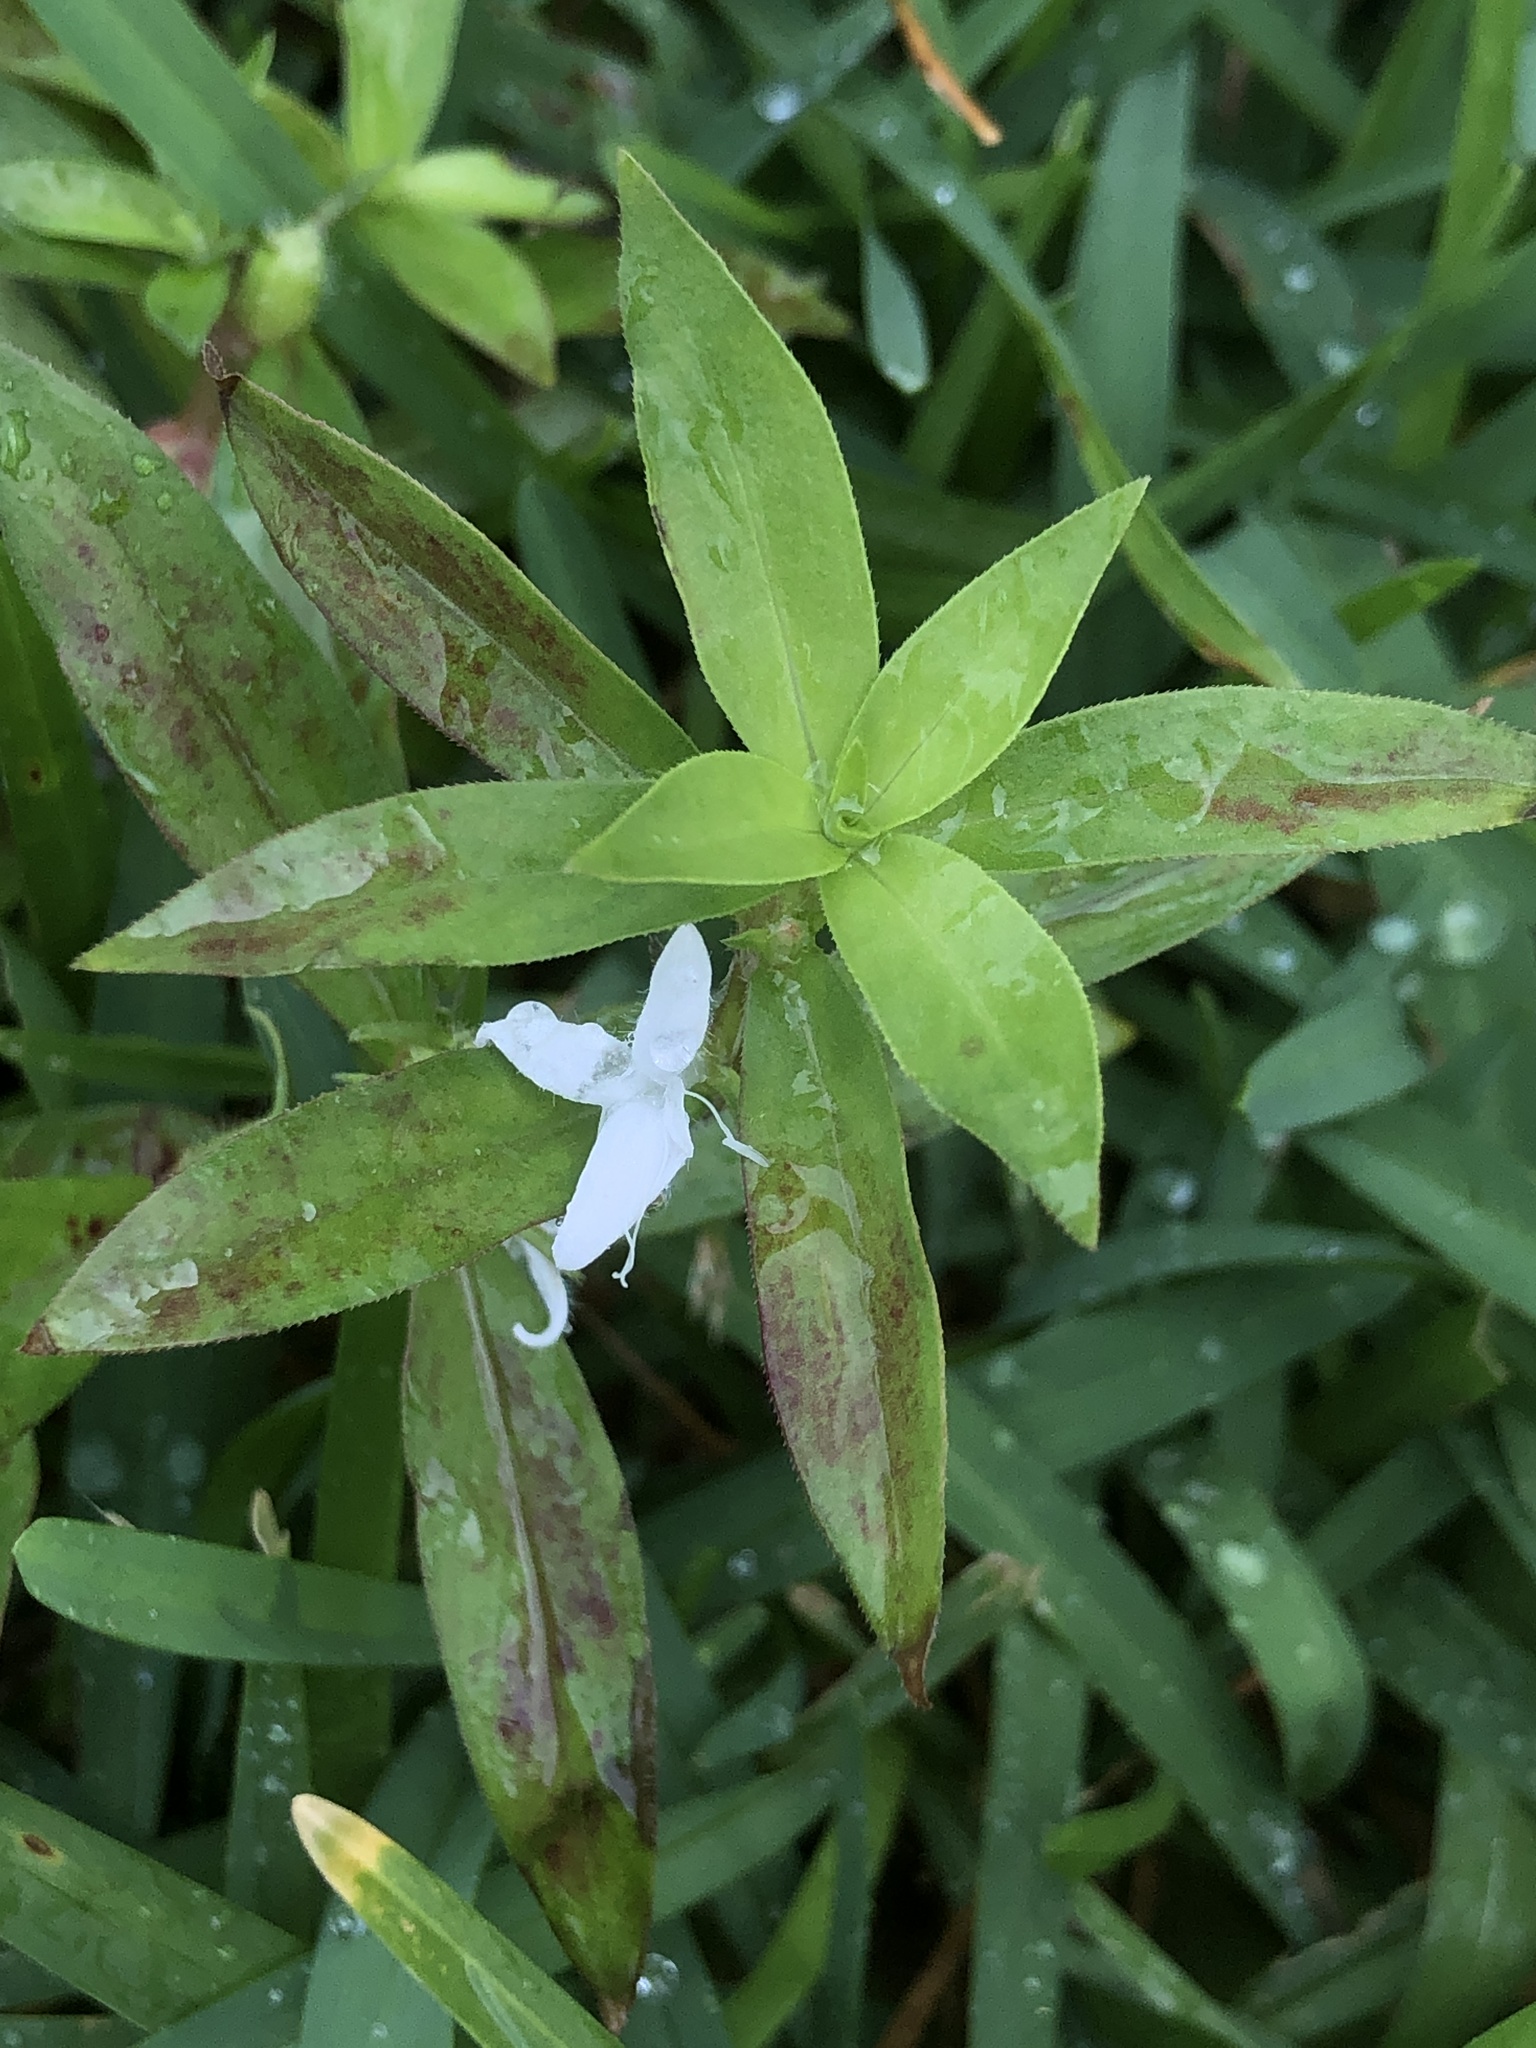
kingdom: Plantae
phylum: Tracheophyta
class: Magnoliopsida
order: Gentianales
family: Rubiaceae
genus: Diodia
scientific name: Diodia virginiana
